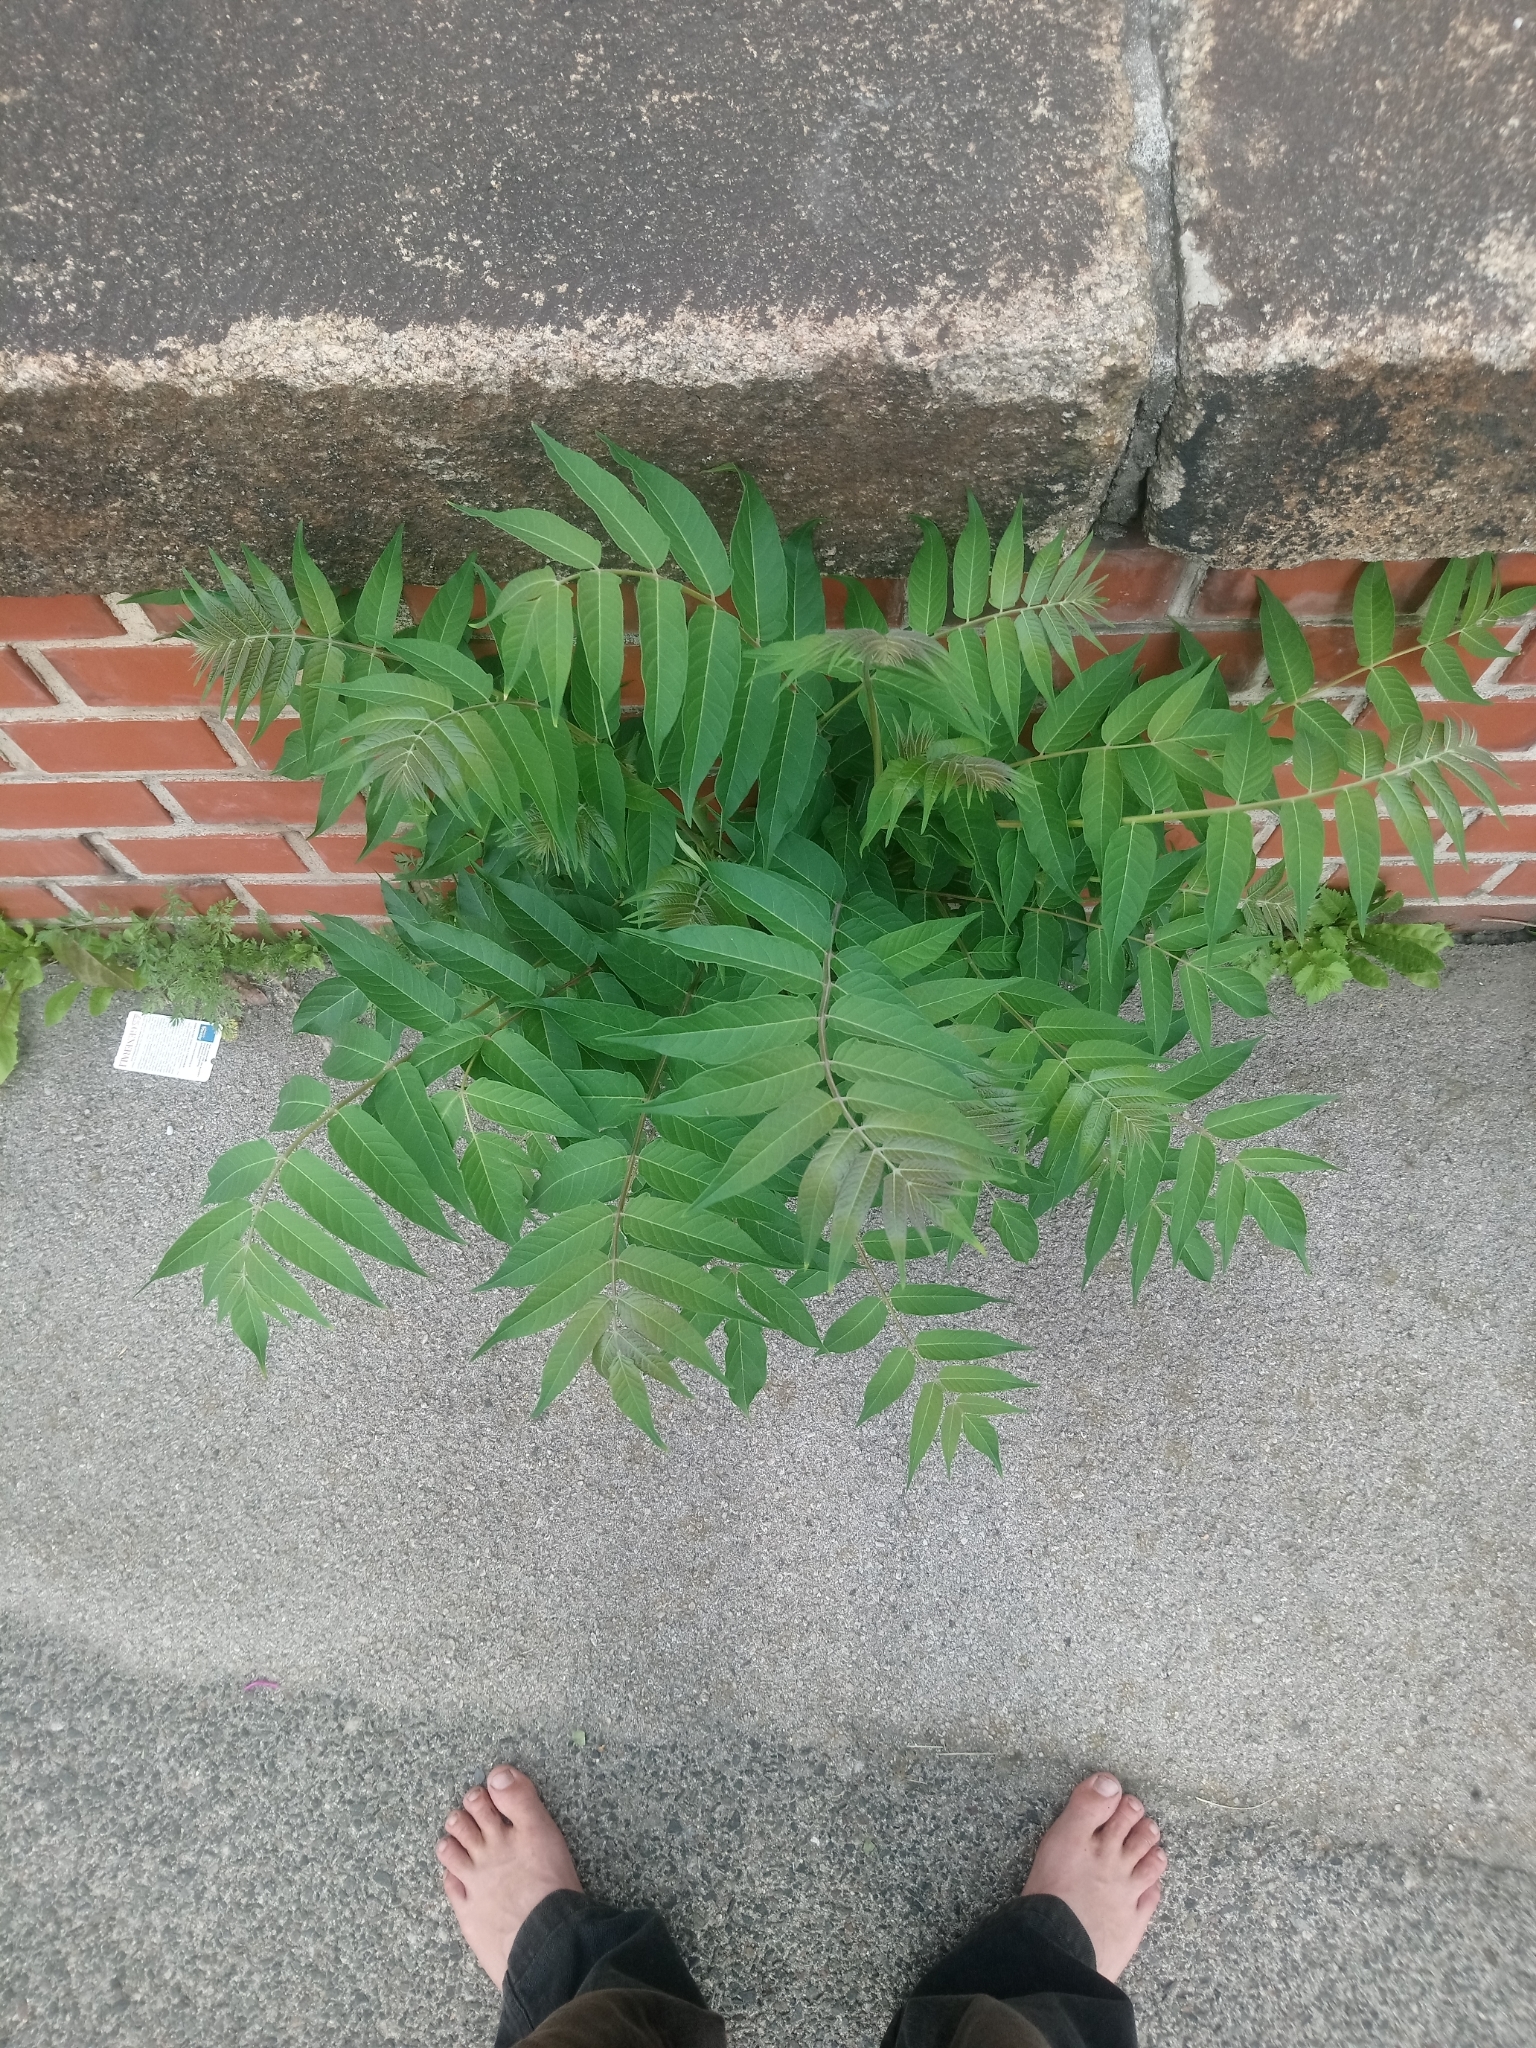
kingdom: Plantae
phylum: Tracheophyta
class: Magnoliopsida
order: Sapindales
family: Simaroubaceae
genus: Ailanthus
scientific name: Ailanthus altissima
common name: Tree-of-heaven
